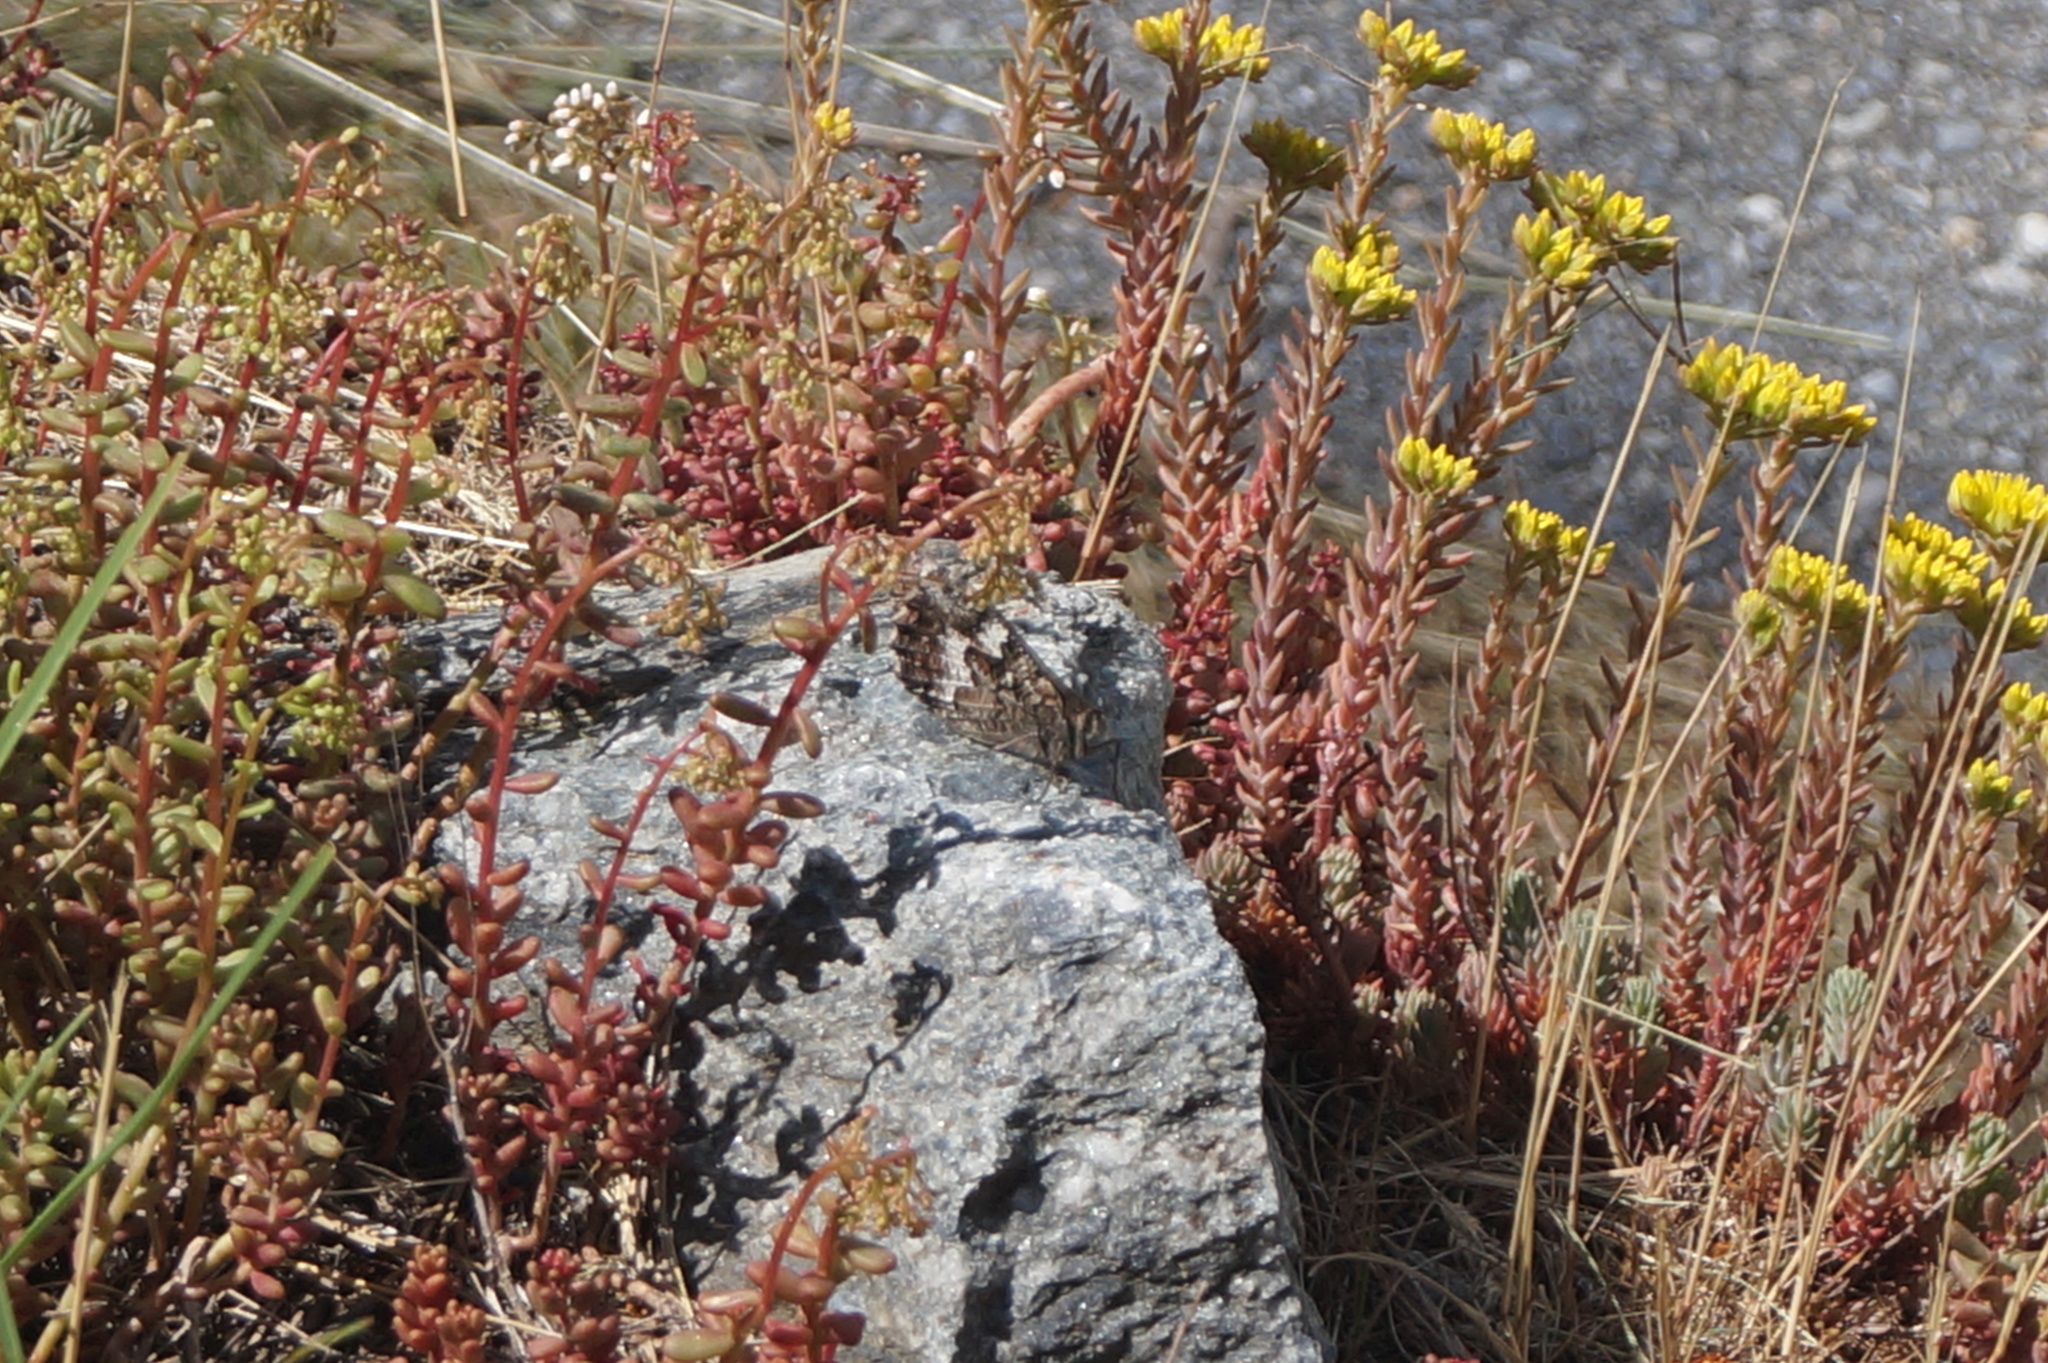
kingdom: Animalia
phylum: Arthropoda
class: Insecta
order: Lepidoptera
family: Nymphalidae
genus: Hipparchia
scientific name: Hipparchia semele
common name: Grayling
